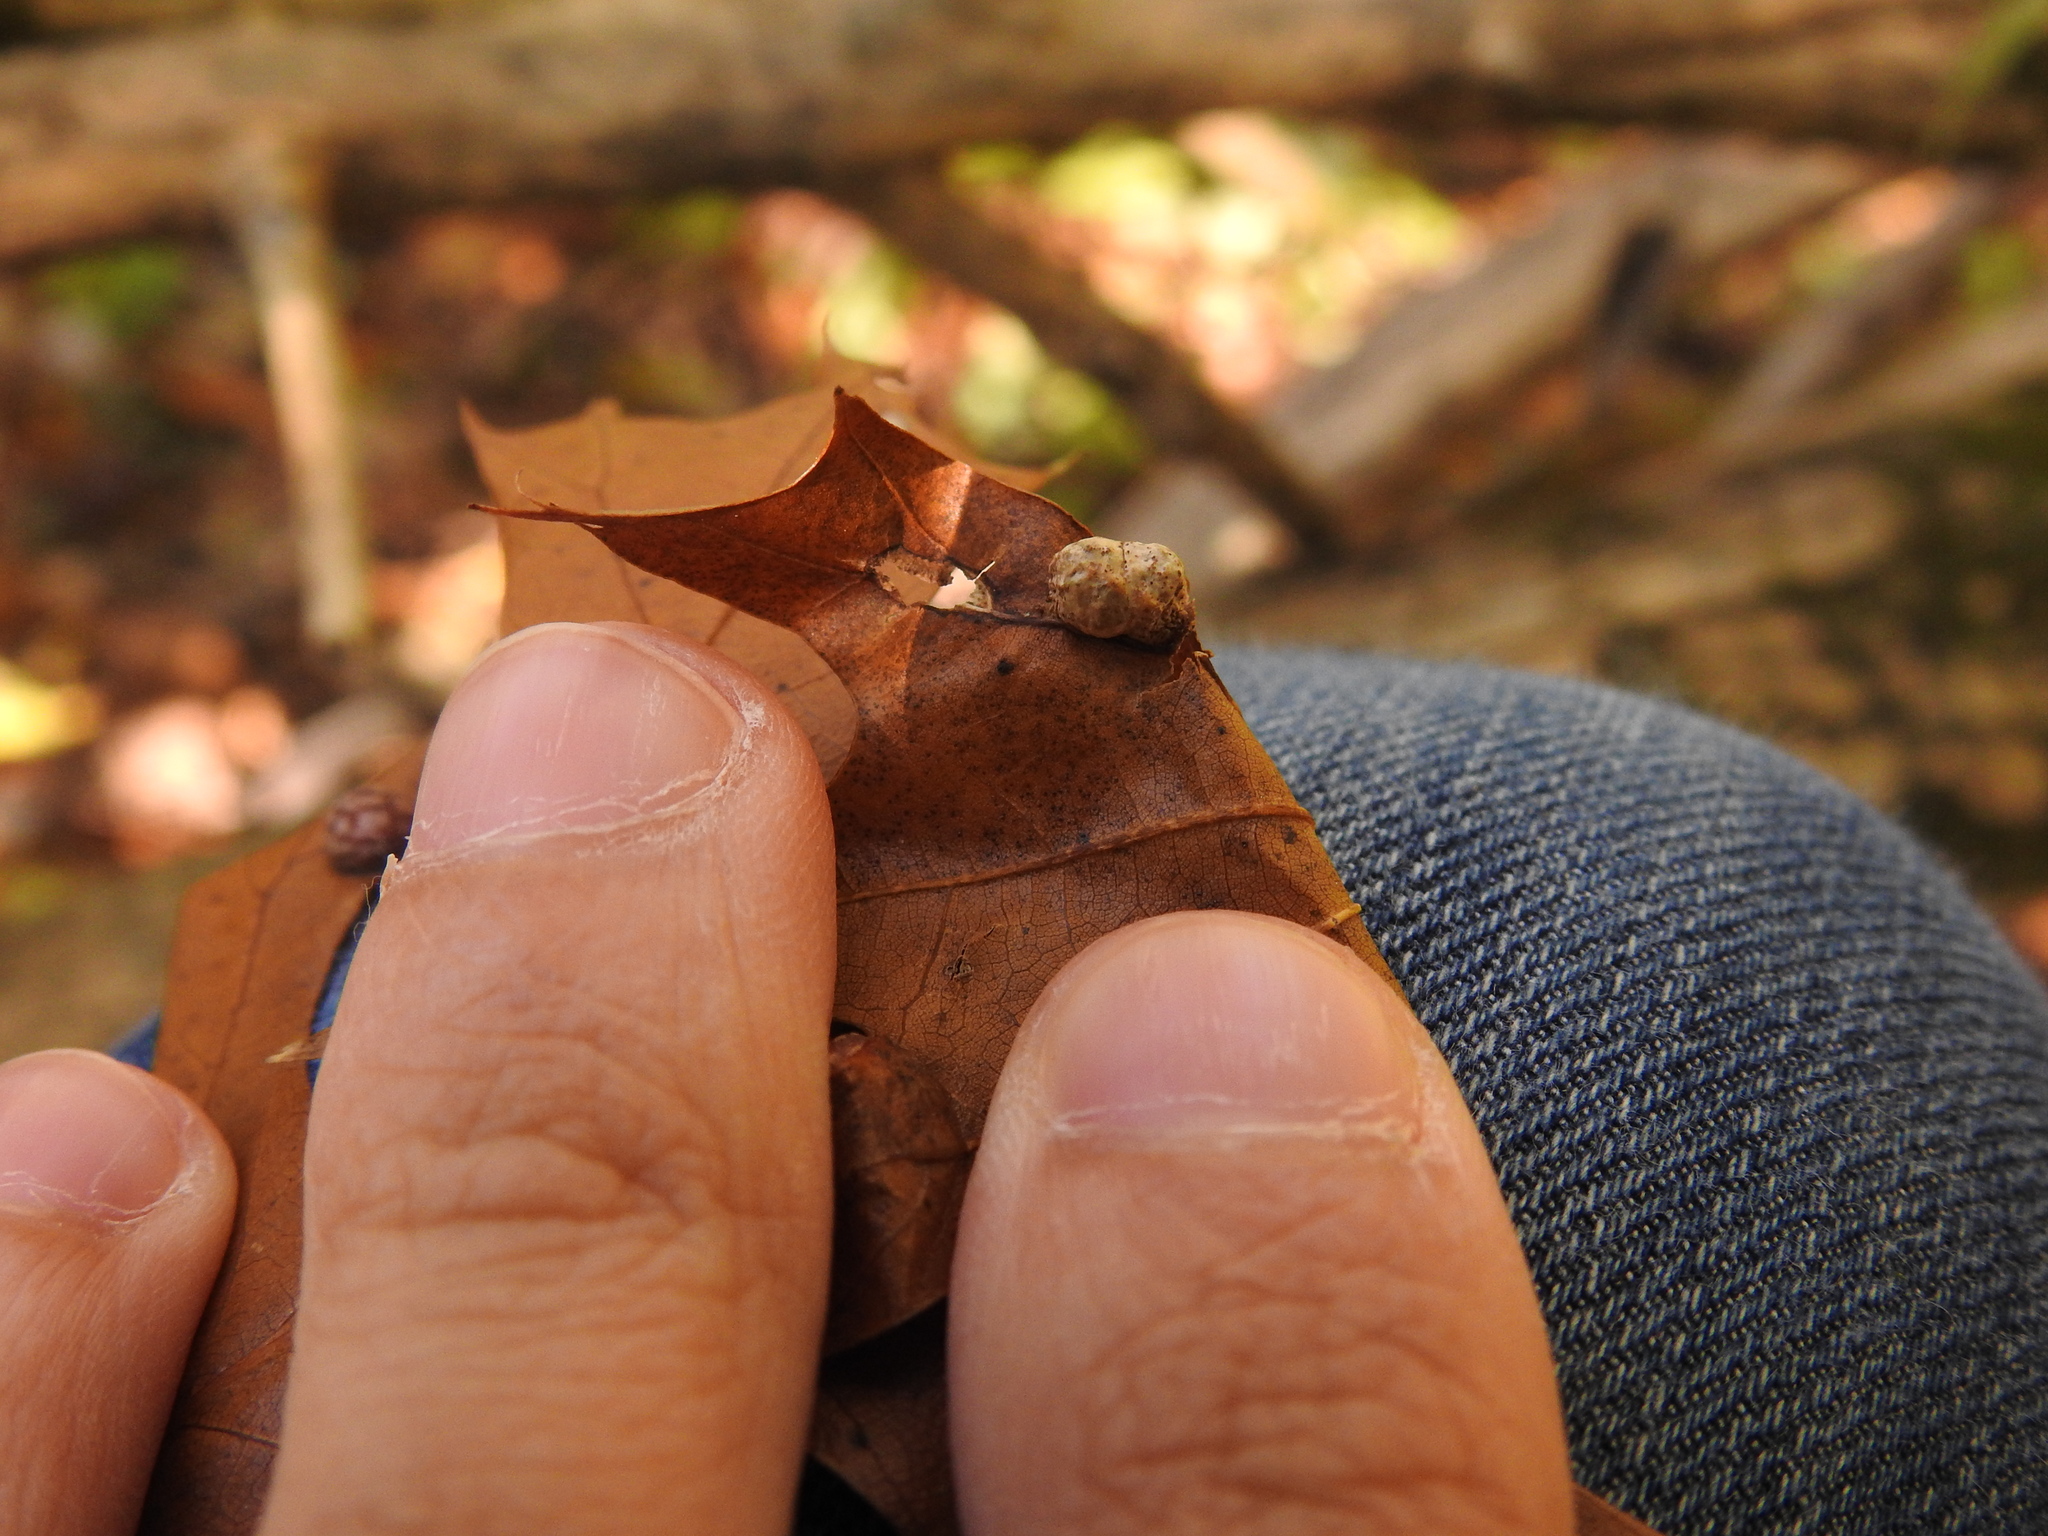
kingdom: Animalia
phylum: Arthropoda
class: Insecta
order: Diptera
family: Cecidomyiidae
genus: Macrodiplosis
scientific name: Macrodiplosis majalis
